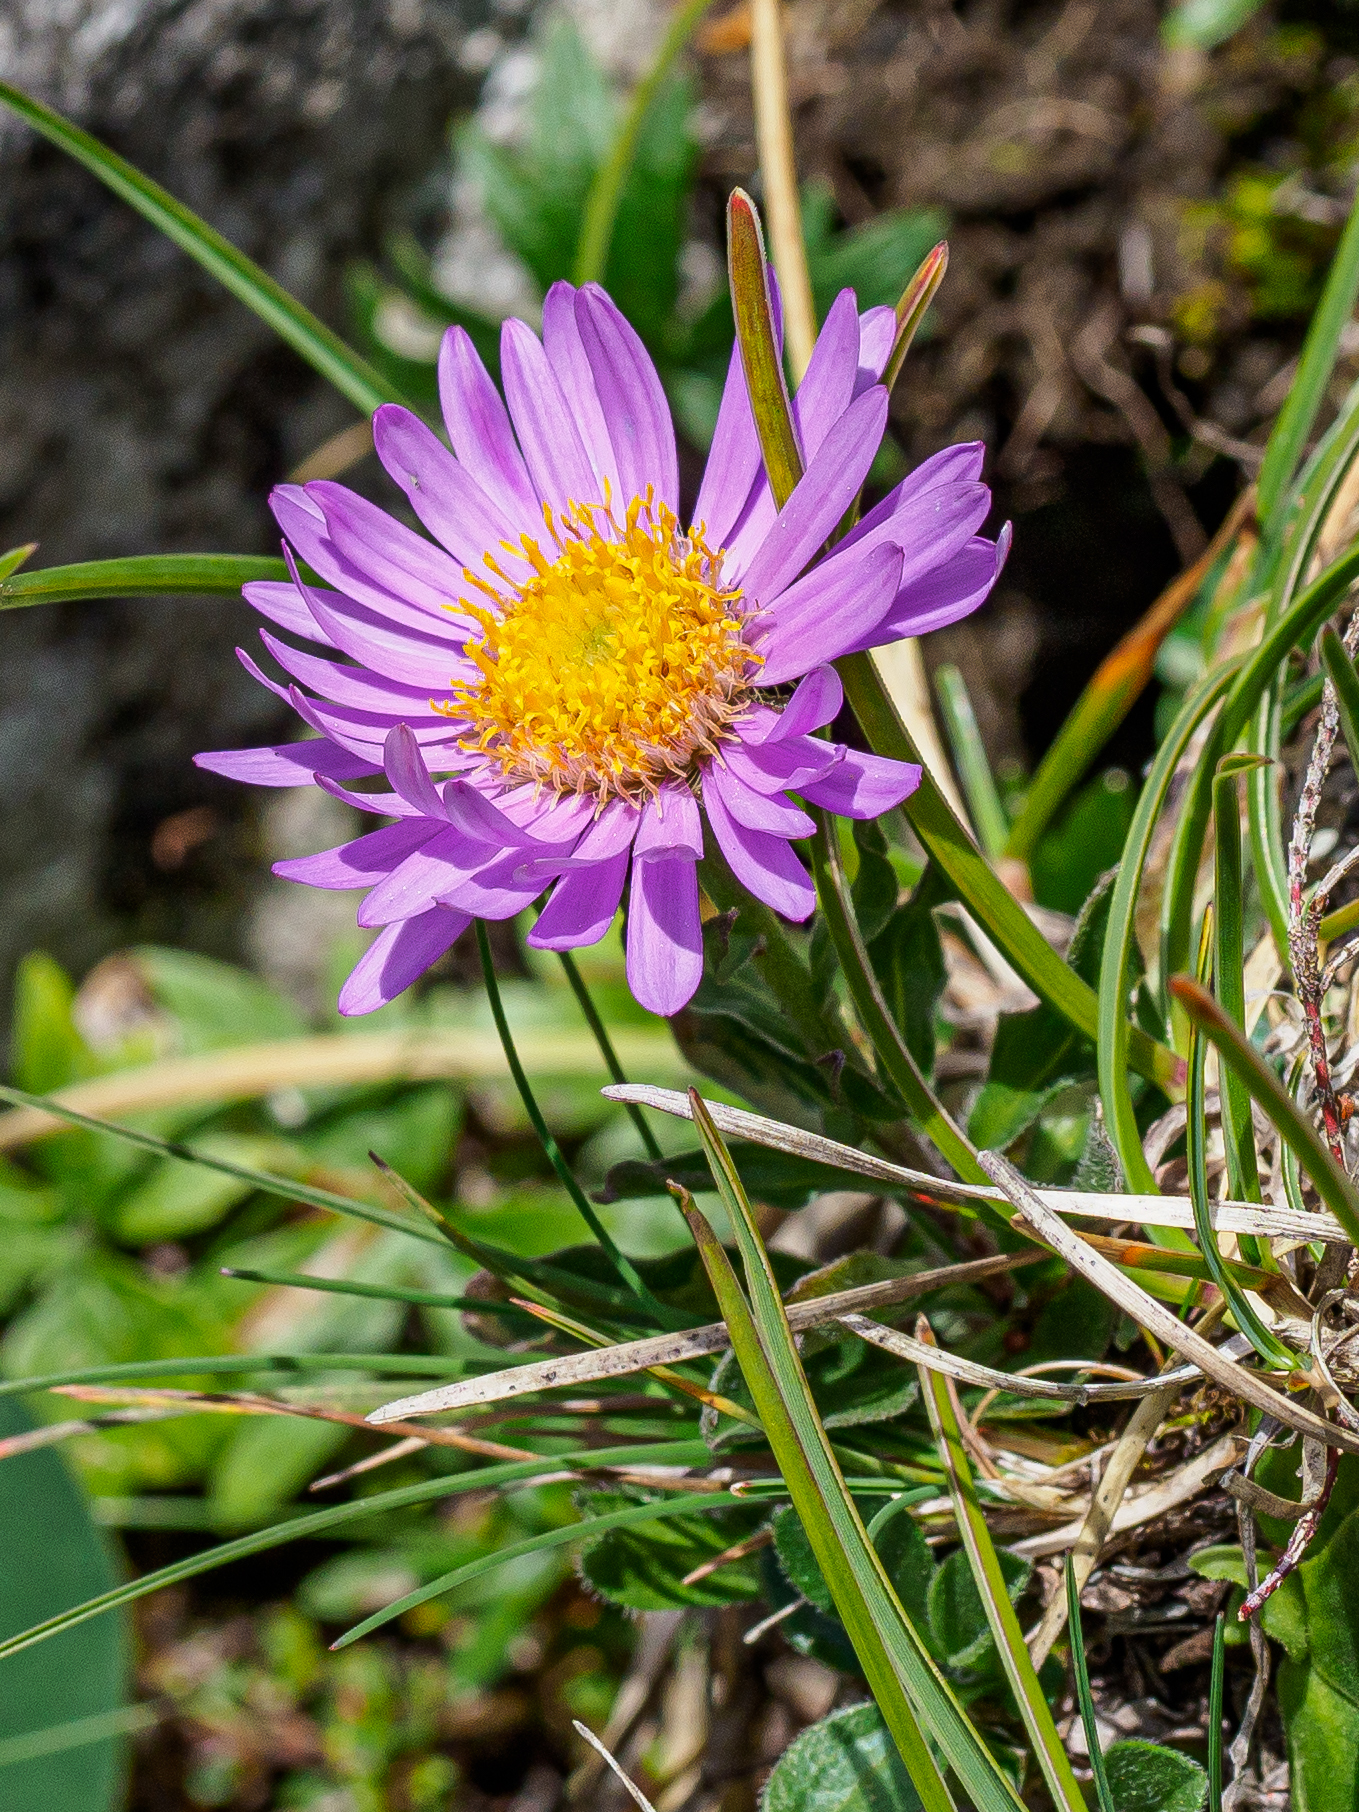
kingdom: Plantae
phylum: Tracheophyta
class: Magnoliopsida
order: Asterales
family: Asteraceae
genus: Aster
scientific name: Aster alpinus
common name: Alpine aster
